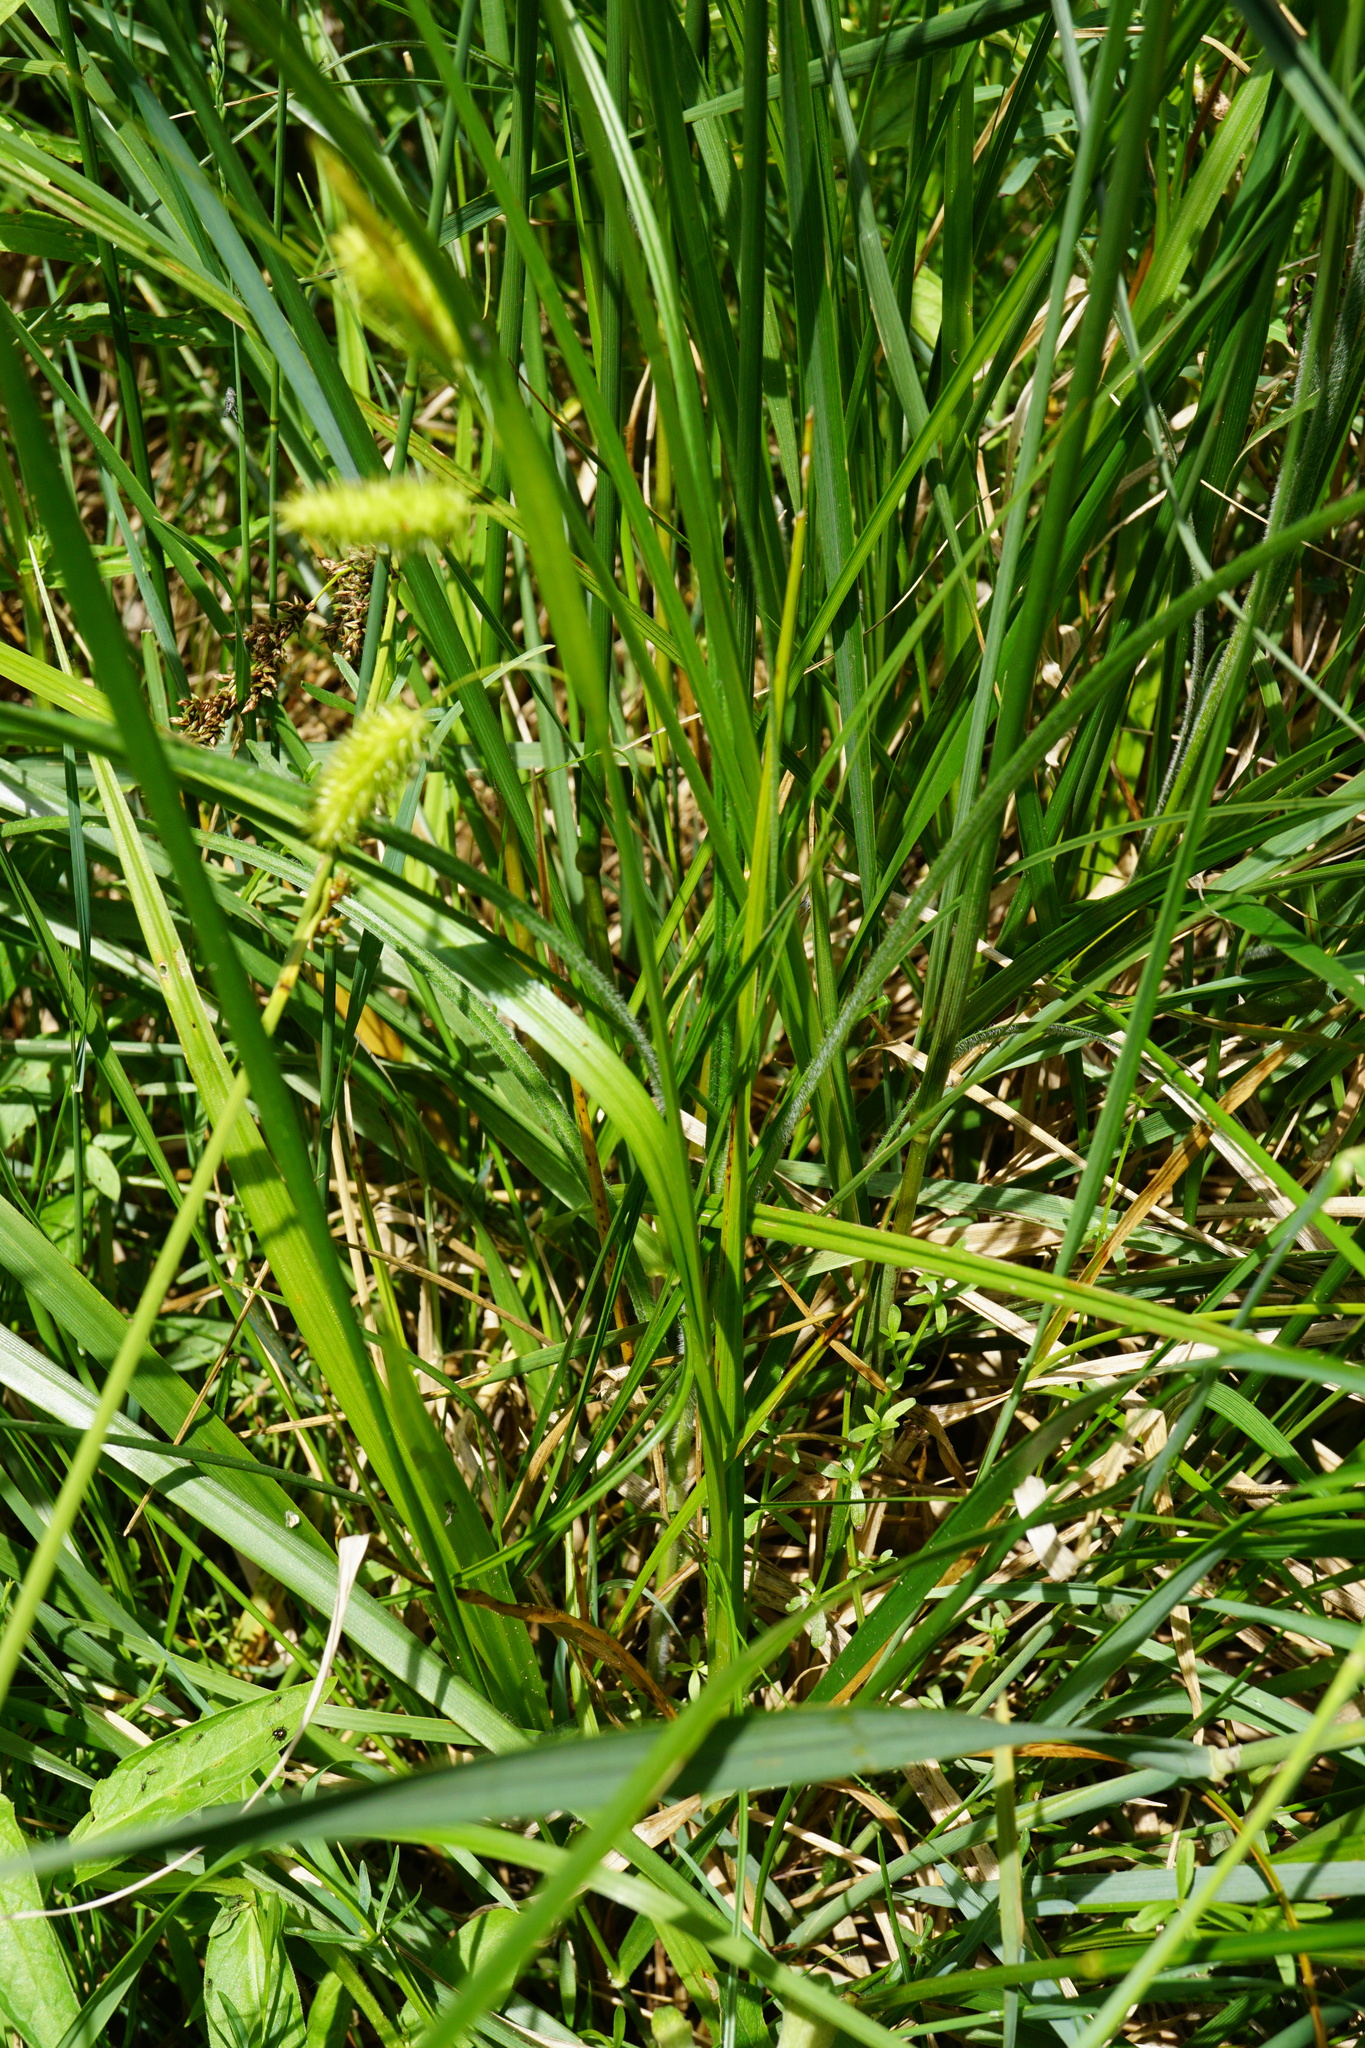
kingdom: Plantae
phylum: Tracheophyta
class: Liliopsida
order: Poales
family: Cyperaceae
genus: Carex
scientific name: Carex pseudocyperus
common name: Cyperus sedge
